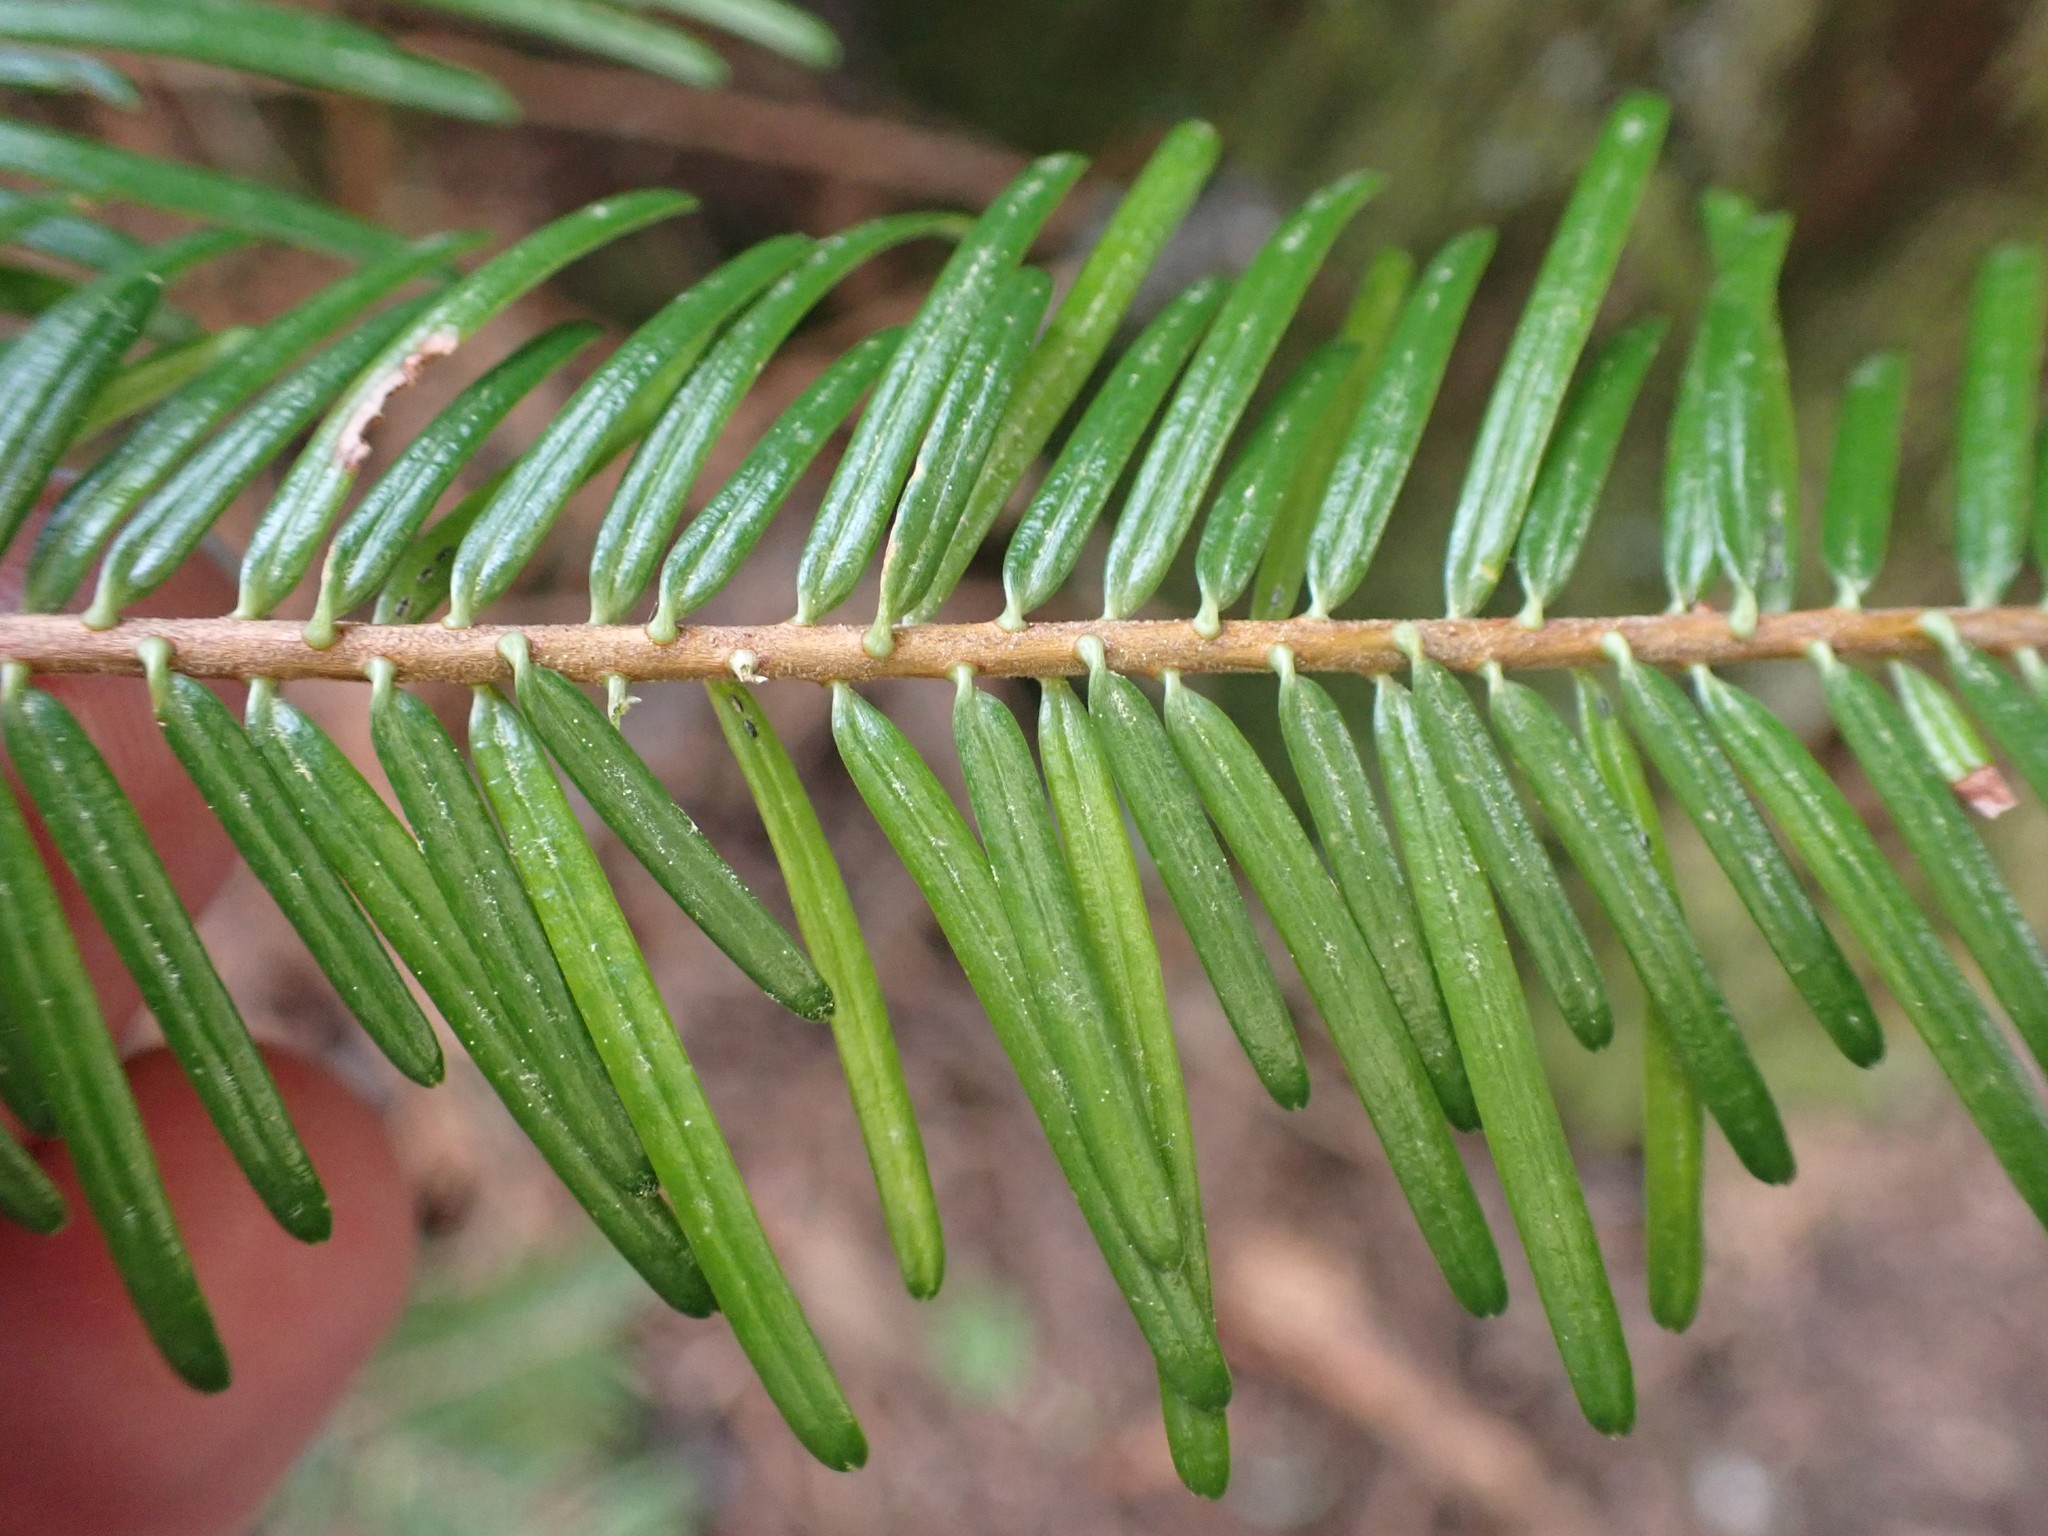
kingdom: Plantae
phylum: Tracheophyta
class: Pinopsida
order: Pinales
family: Pinaceae
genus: Abies
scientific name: Abies grandis
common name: Giant fir
